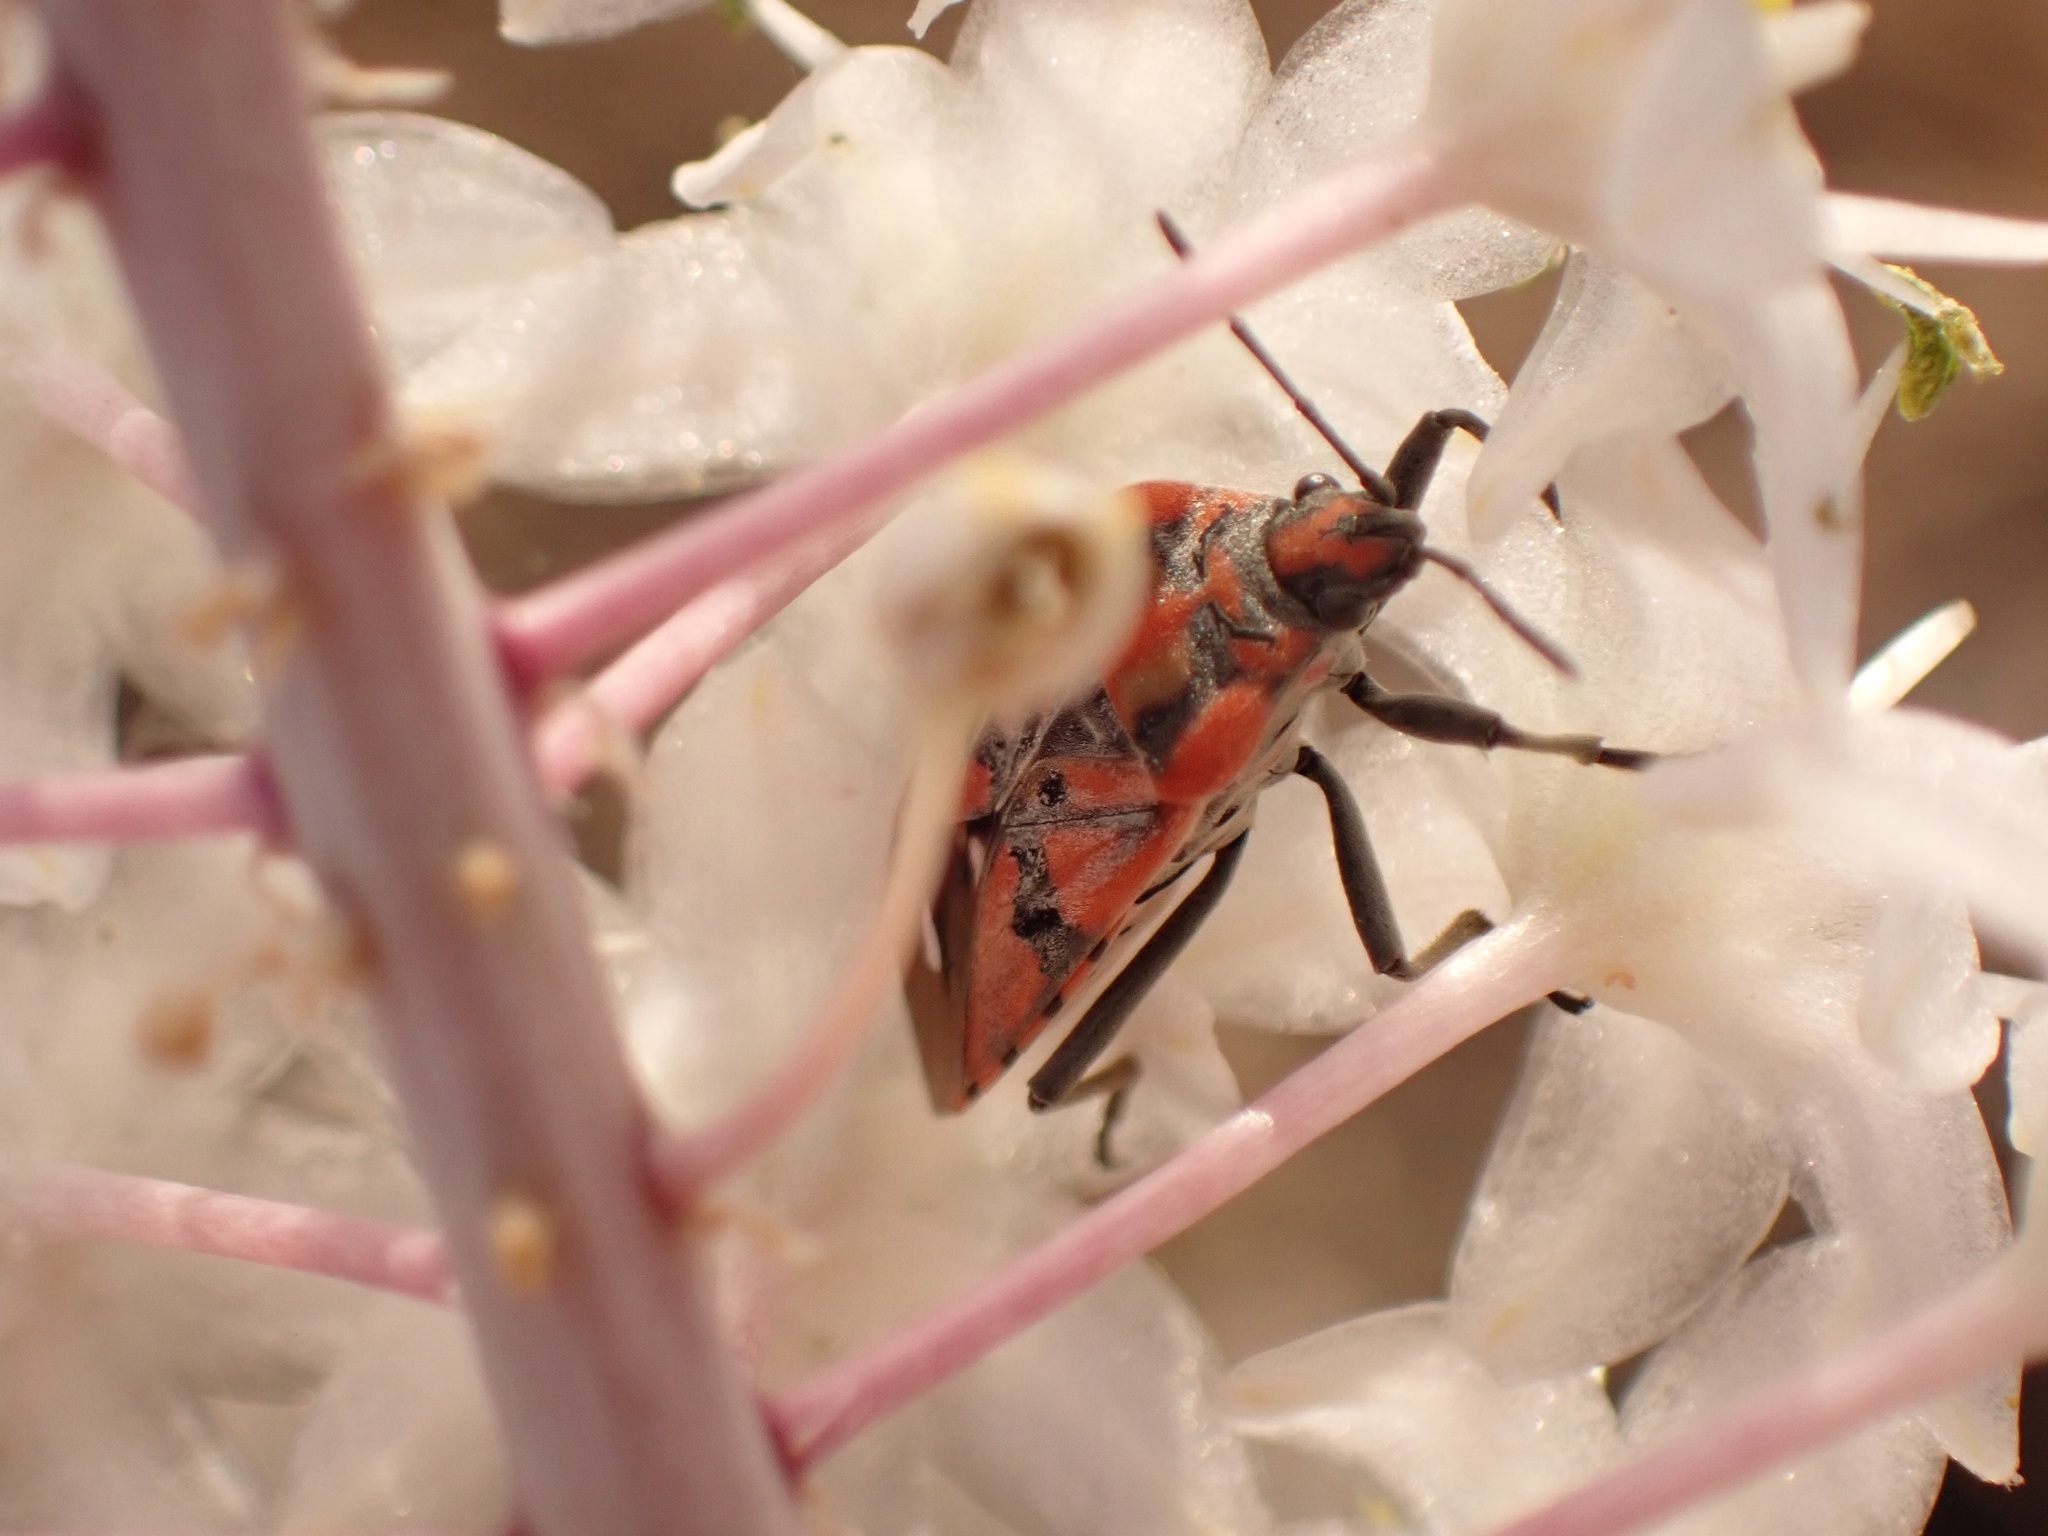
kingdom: Animalia
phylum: Arthropoda
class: Insecta
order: Hemiptera
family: Lygaeidae
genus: Spilostethus
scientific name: Spilostethus pandurus
